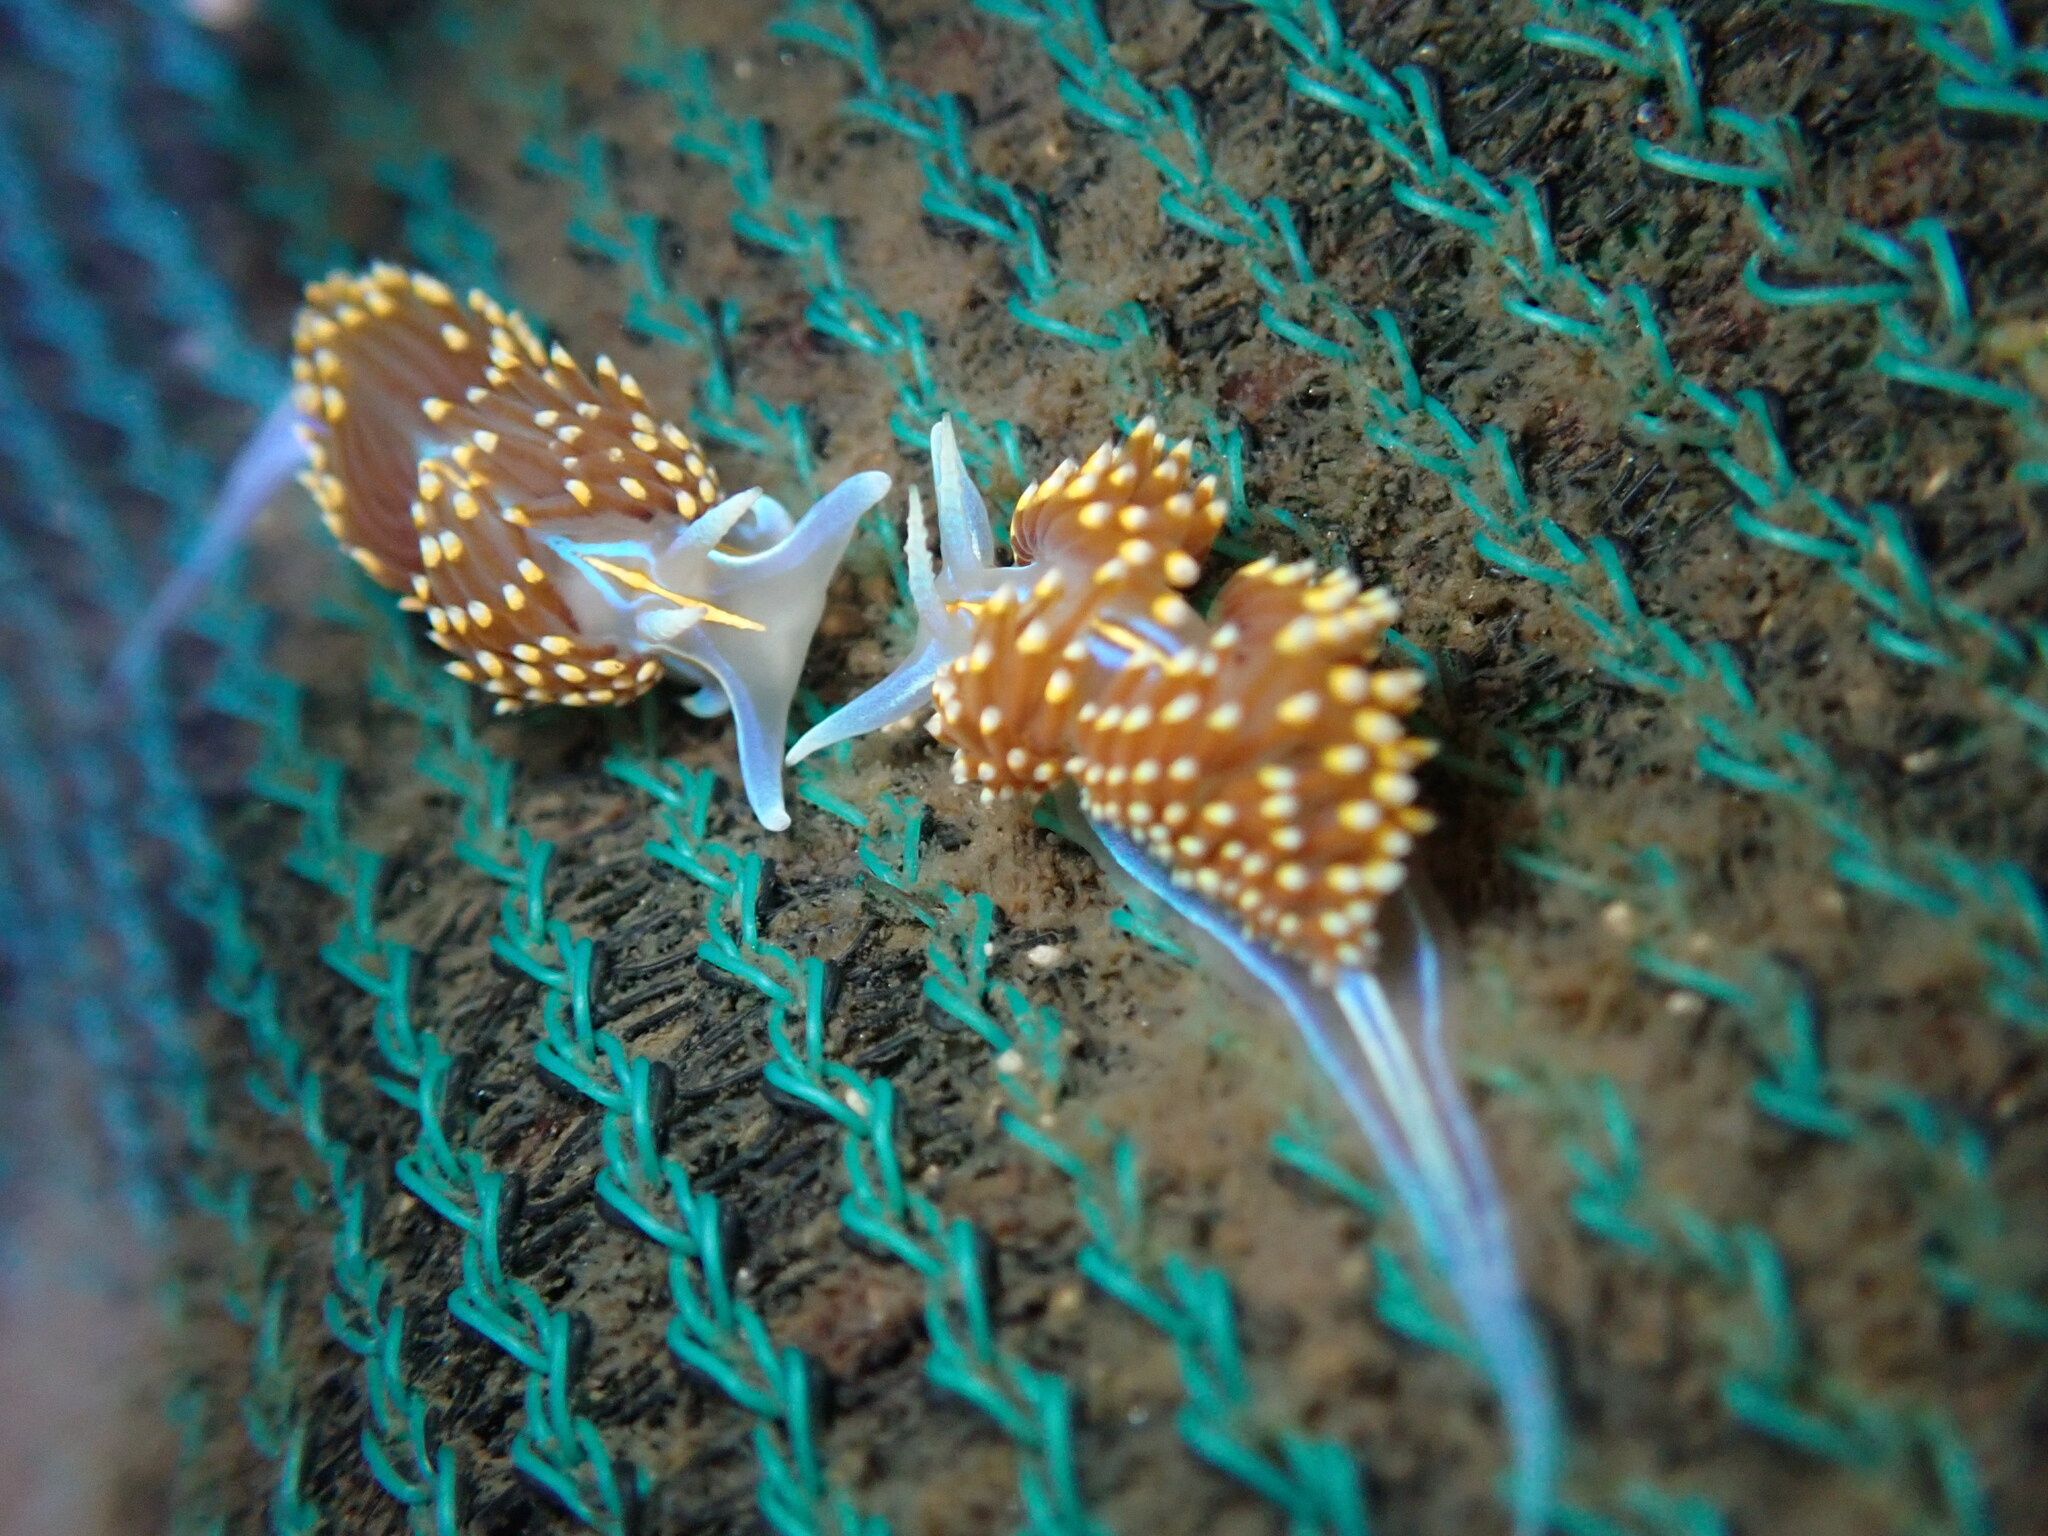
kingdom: Animalia
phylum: Mollusca
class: Gastropoda
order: Nudibranchia
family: Myrrhinidae
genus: Hermissenda
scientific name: Hermissenda opalescens
